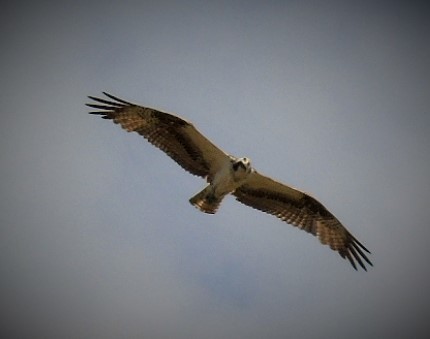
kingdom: Animalia
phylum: Chordata
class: Aves
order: Accipitriformes
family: Pandionidae
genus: Pandion
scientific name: Pandion haliaetus
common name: Osprey
